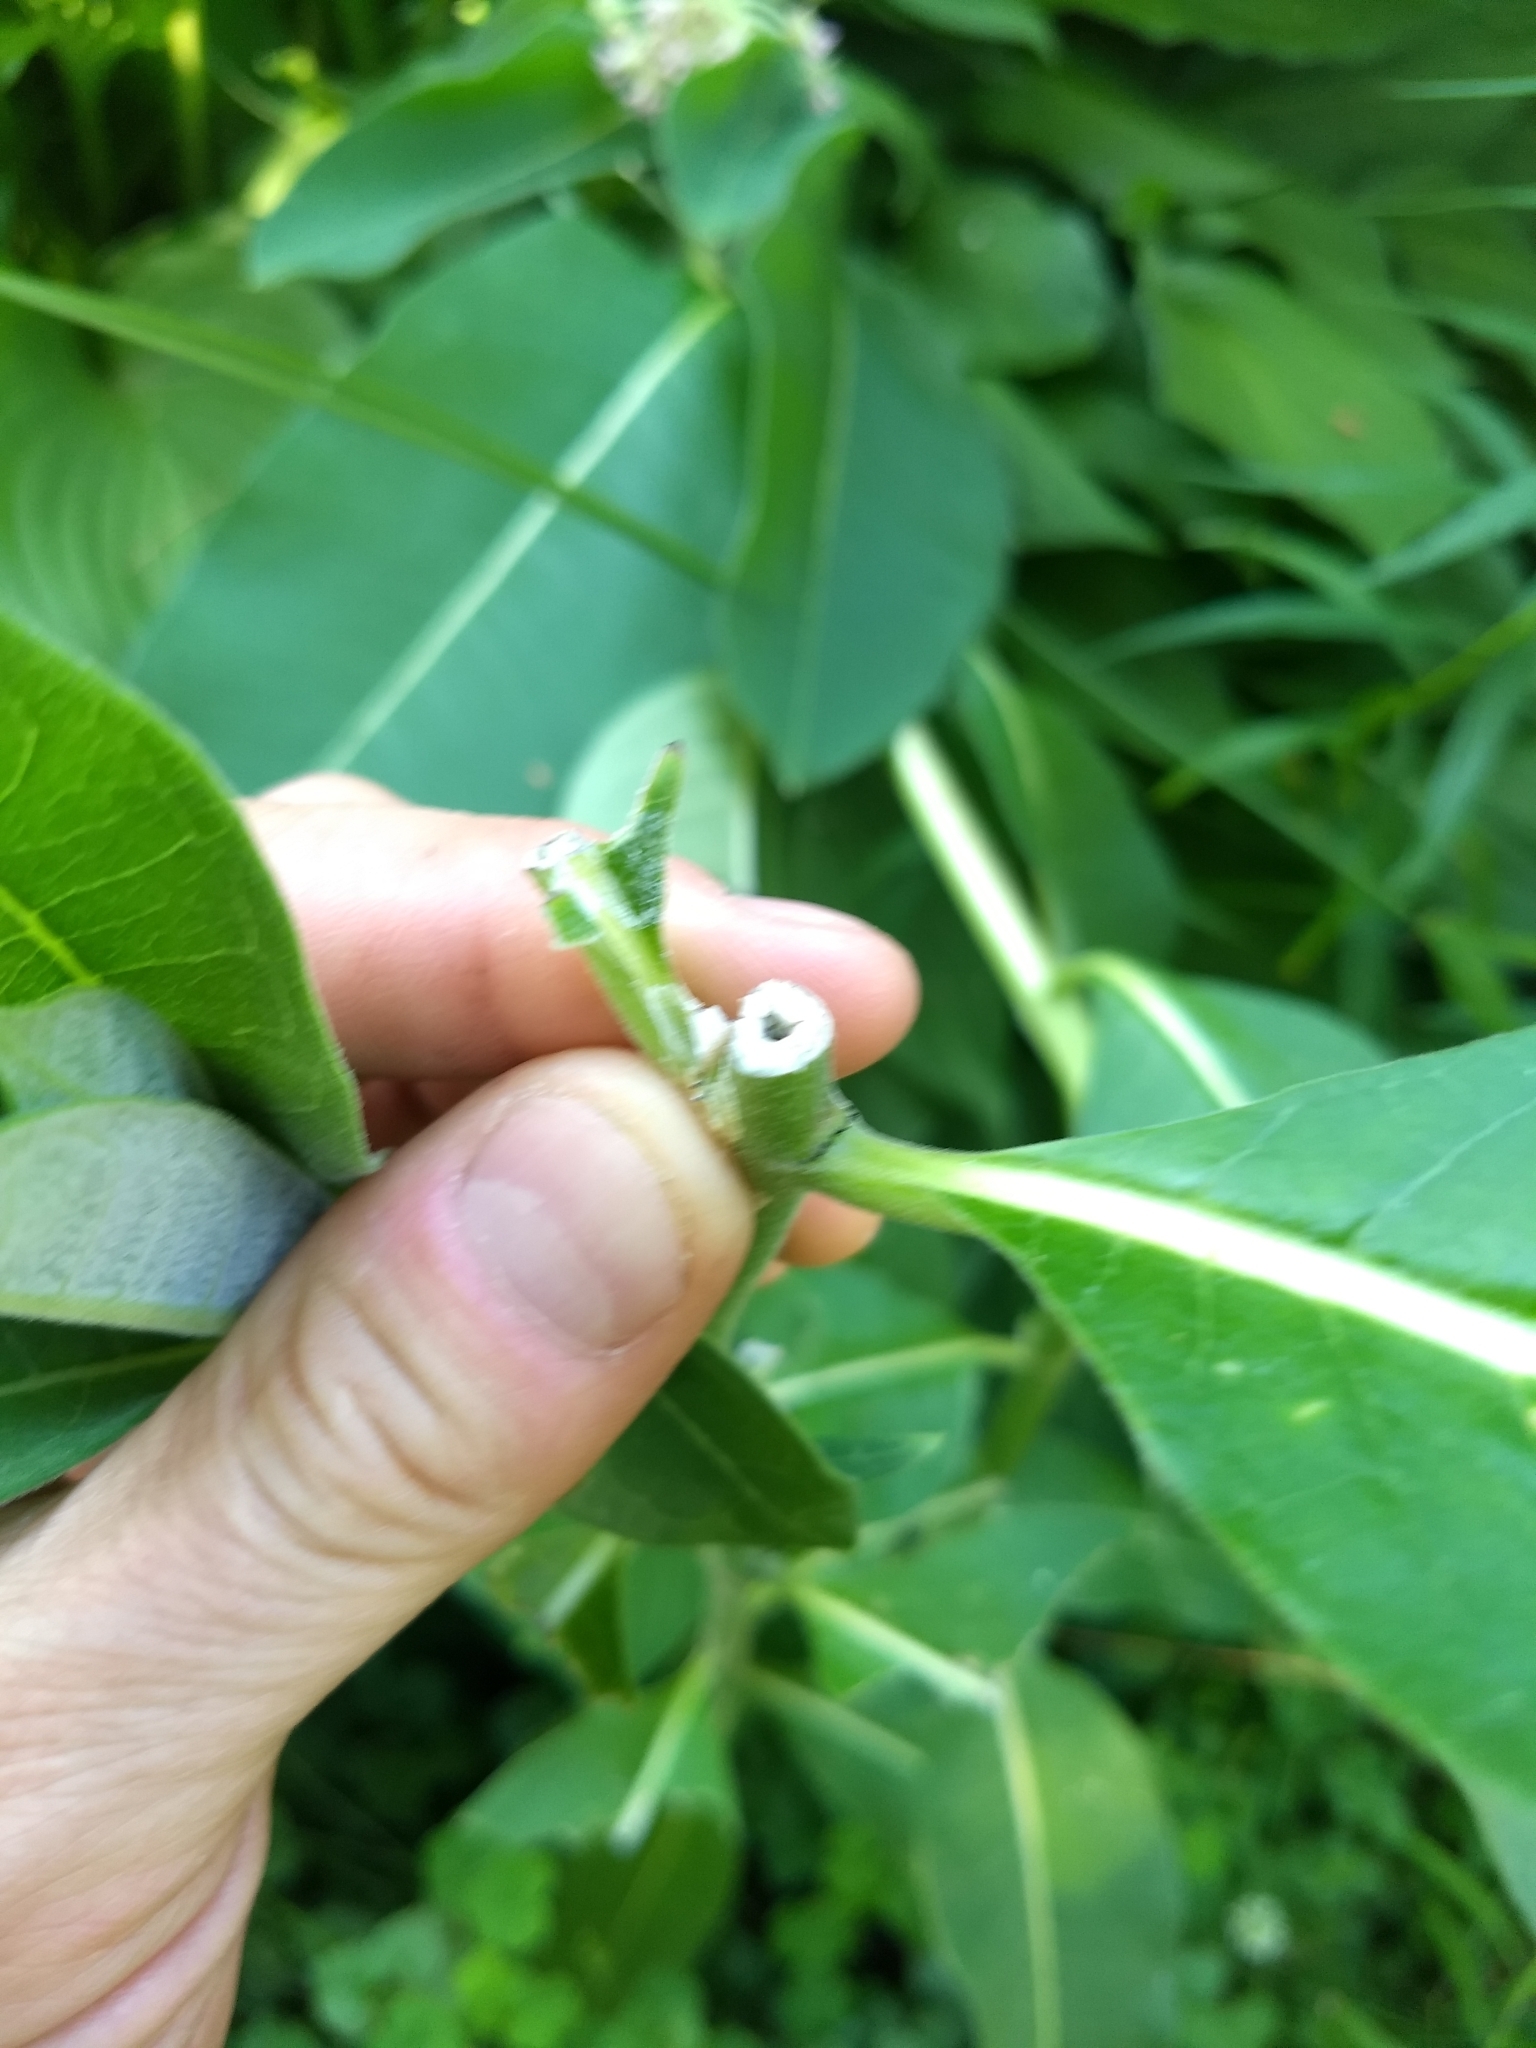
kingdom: Plantae
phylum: Tracheophyta
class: Magnoliopsida
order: Gentianales
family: Apocynaceae
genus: Asclepias
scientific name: Asclepias syriaca
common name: Common milkweed
